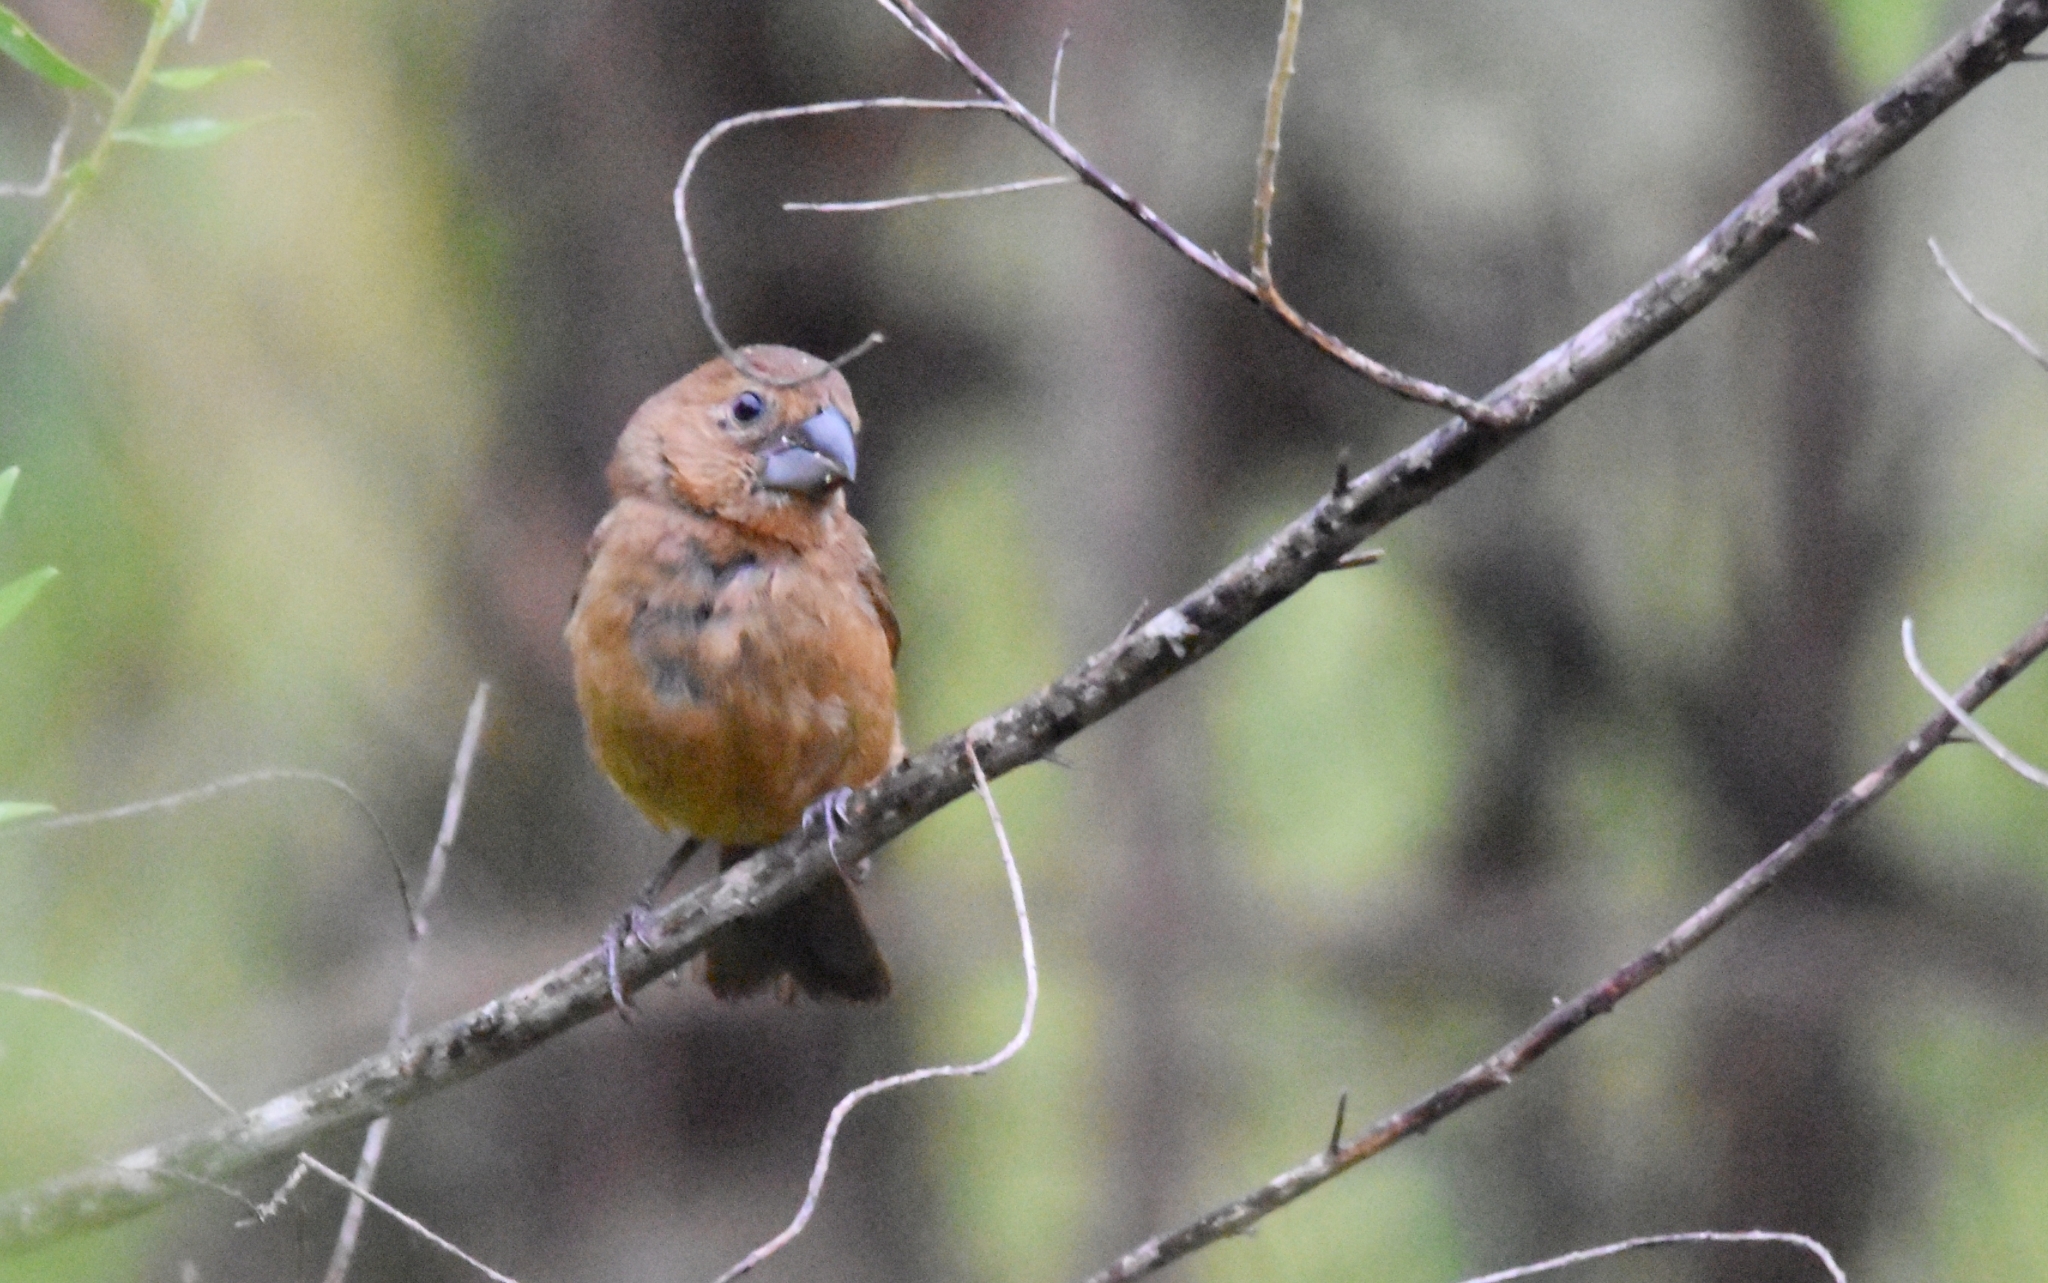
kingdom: Animalia
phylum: Chordata
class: Aves
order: Passeriformes
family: Cardinalidae
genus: Cyanoloxia
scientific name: Cyanoloxia brissonii
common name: Ultramarine grosbeak
